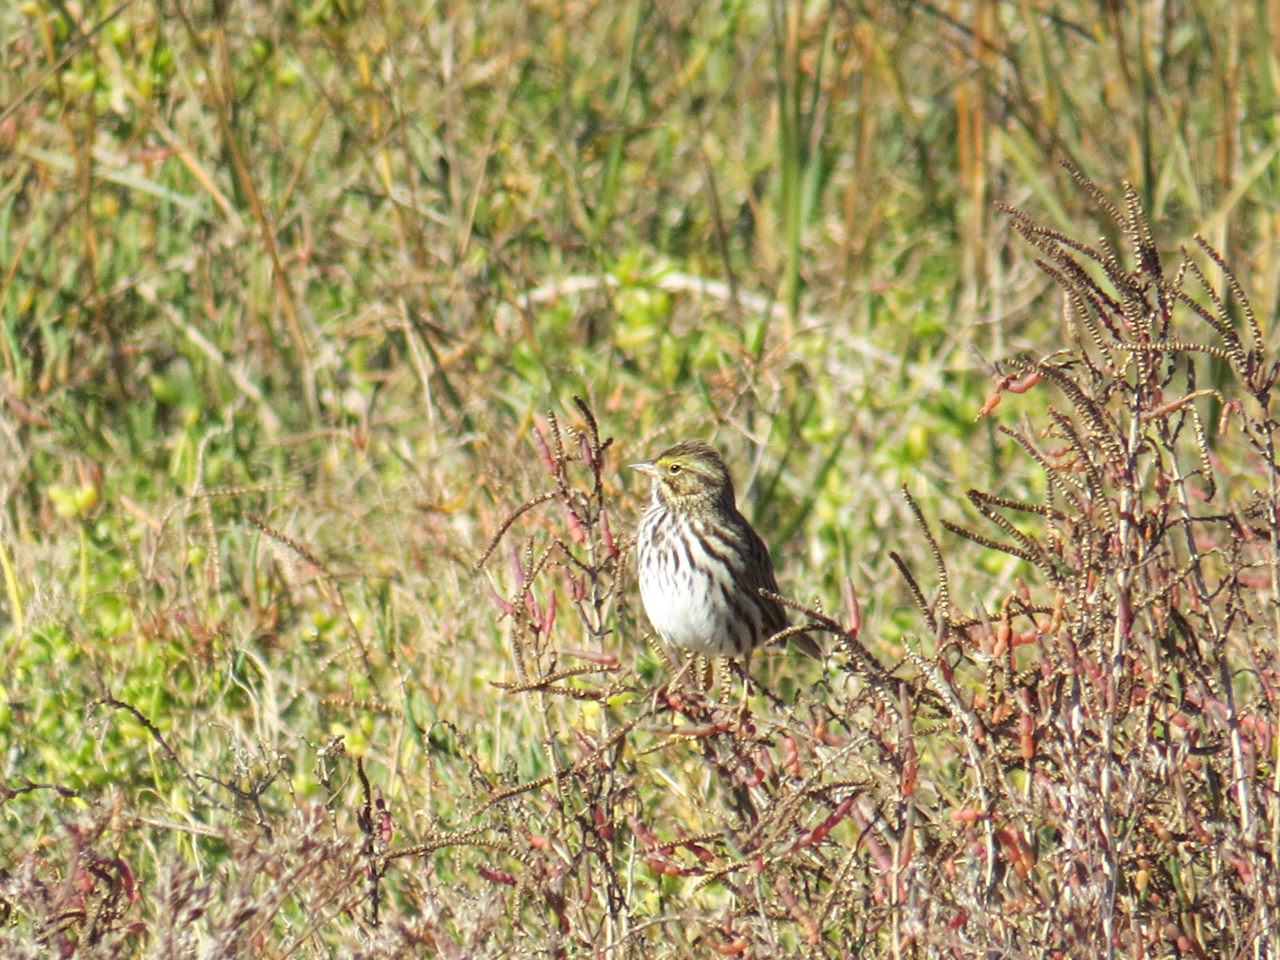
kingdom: Animalia
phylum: Chordata
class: Aves
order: Passeriformes
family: Passerellidae
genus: Passerculus
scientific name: Passerculus sandwichensis
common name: Savannah sparrow
